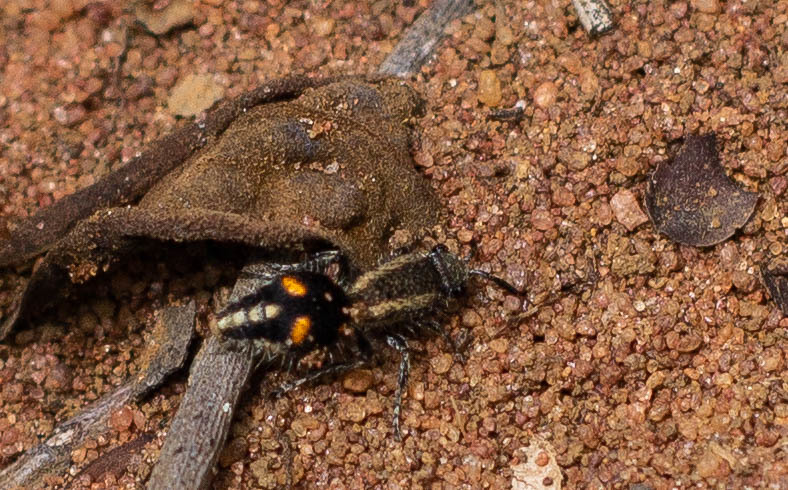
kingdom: Animalia
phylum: Arthropoda
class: Insecta
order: Hymenoptera
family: Mutillidae
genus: Traumatomutilla
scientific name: Traumatomutilla quadrum
